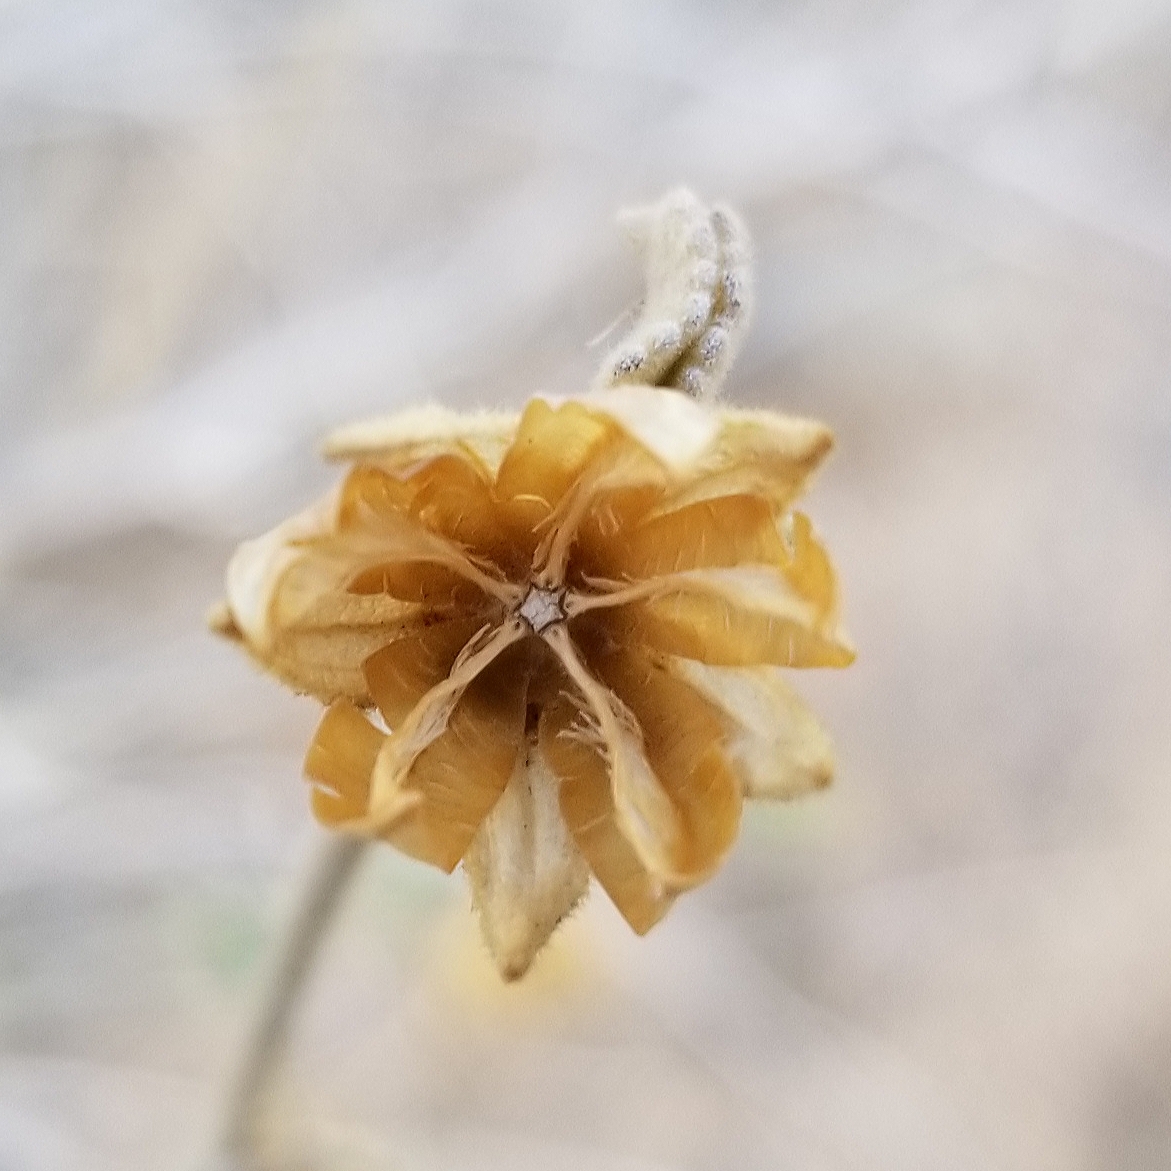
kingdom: Plantae
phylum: Tracheophyta
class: Magnoliopsida
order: Malvales
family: Malvaceae
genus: Hibiscus
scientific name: Hibiscus denudatus
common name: Paleface
